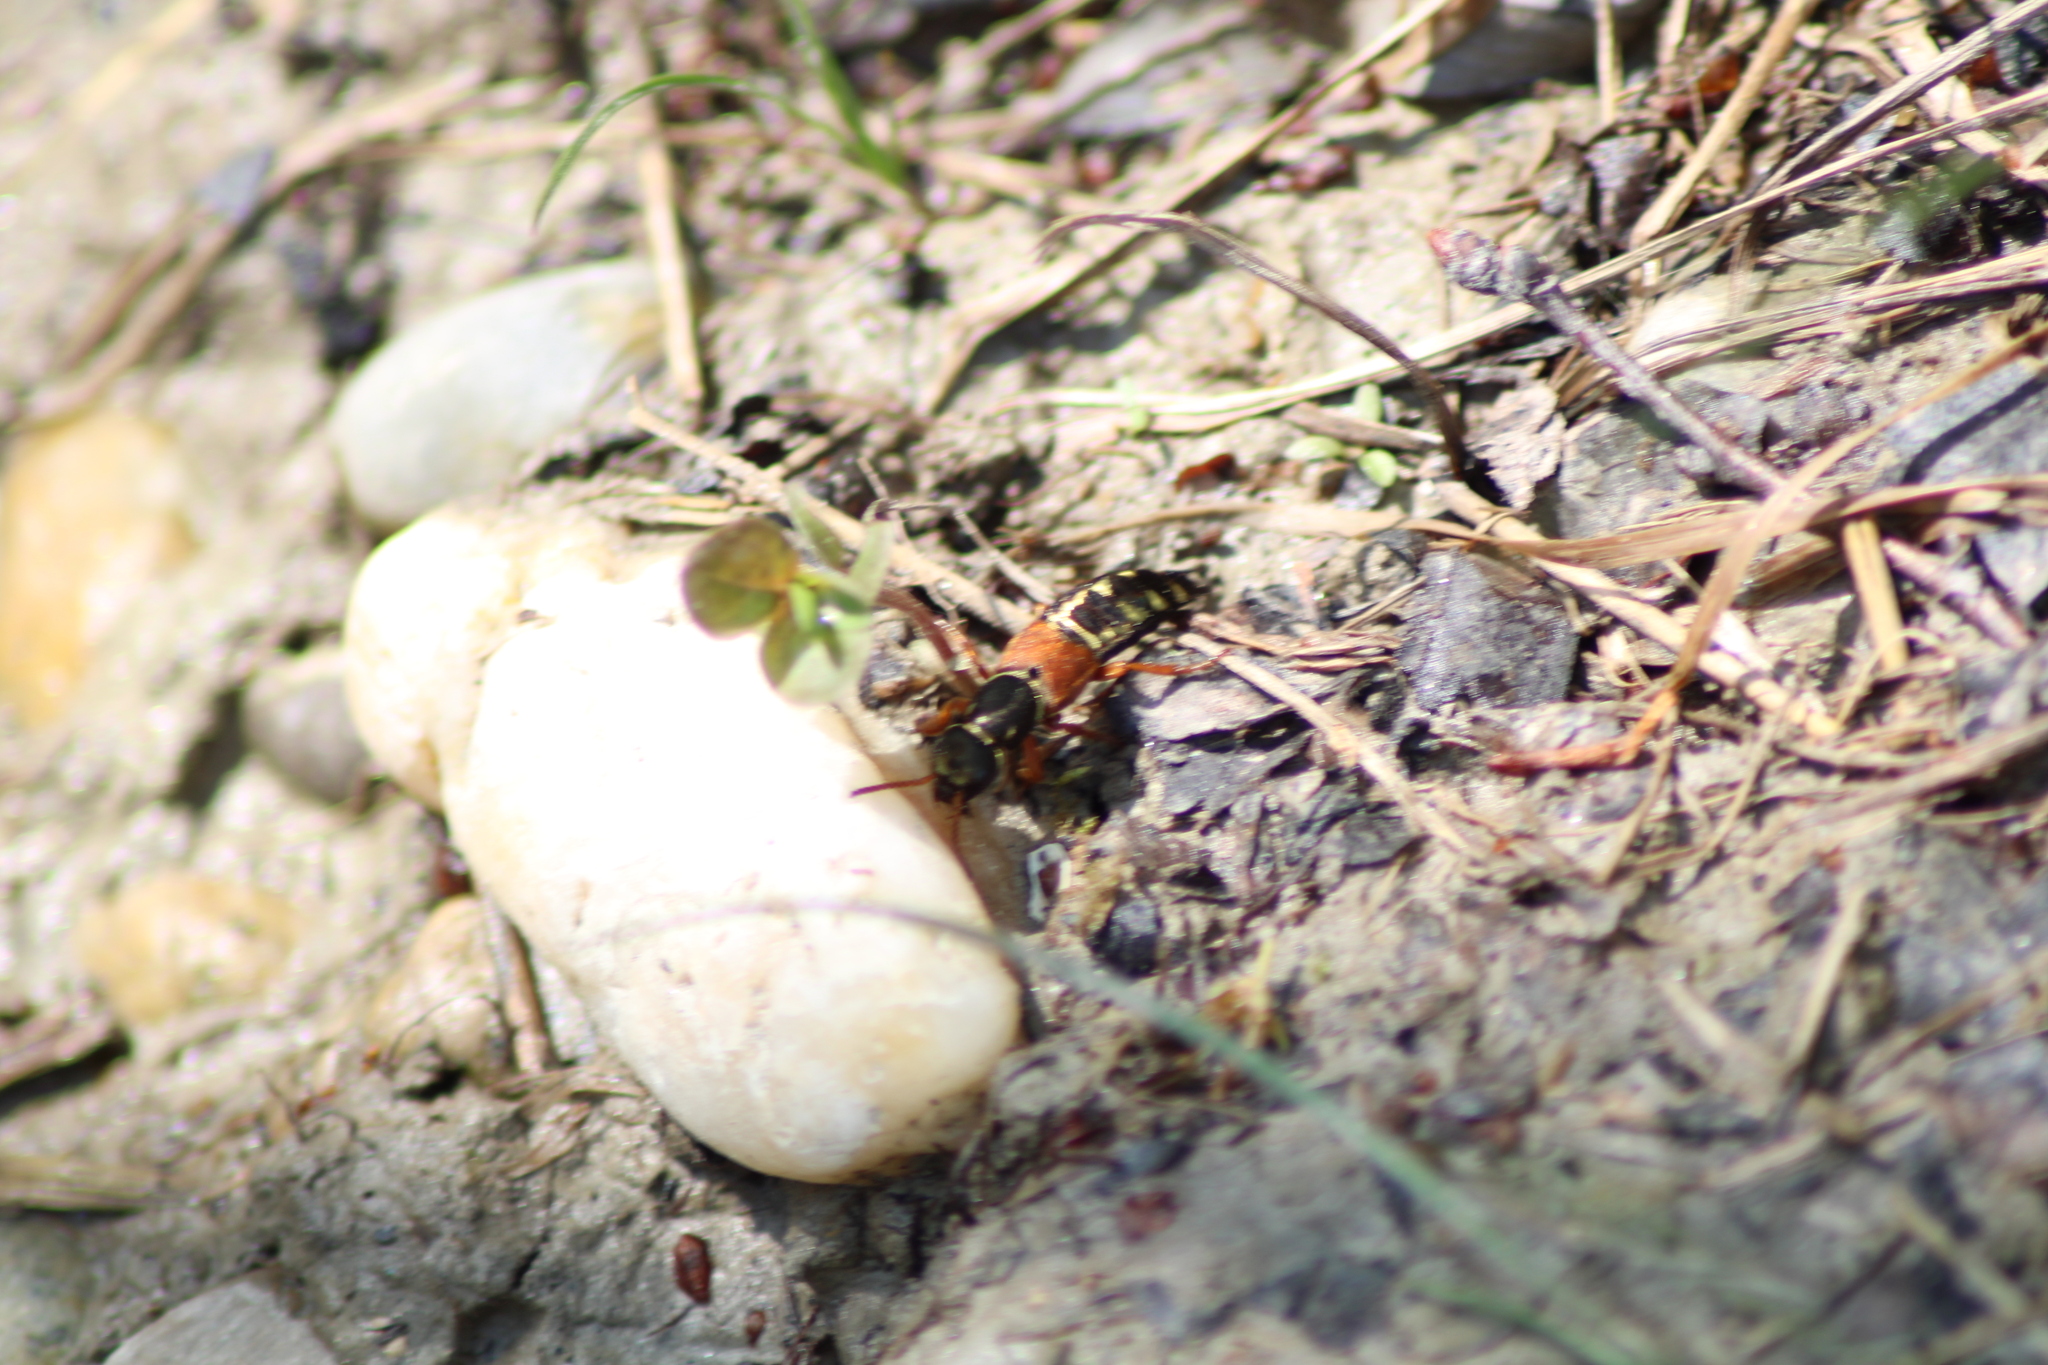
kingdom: Animalia
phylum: Arthropoda
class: Insecta
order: Coleoptera
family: Staphylinidae
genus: Staphylinus
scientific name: Staphylinus caesareus
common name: Staph beetle
